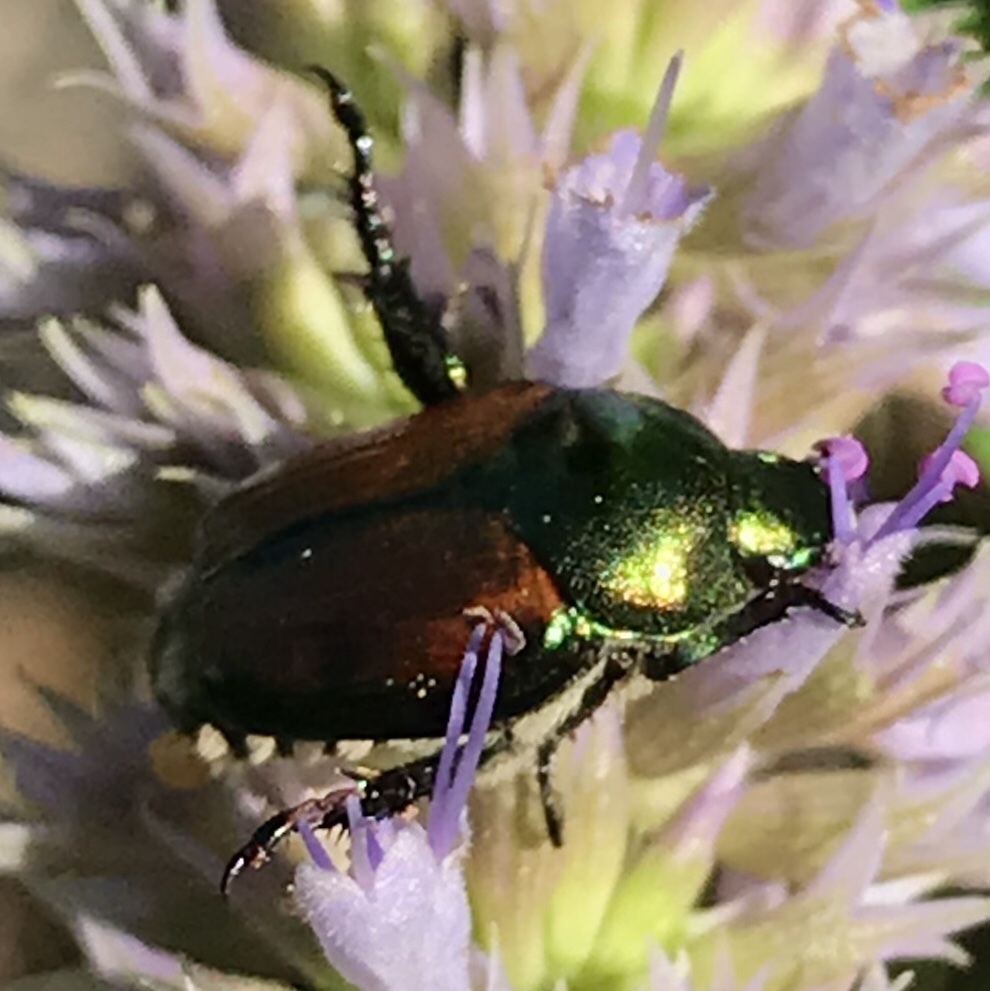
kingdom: Animalia
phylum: Arthropoda
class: Insecta
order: Coleoptera
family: Scarabaeidae
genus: Popillia
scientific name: Popillia japonica
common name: Japanese beetle
